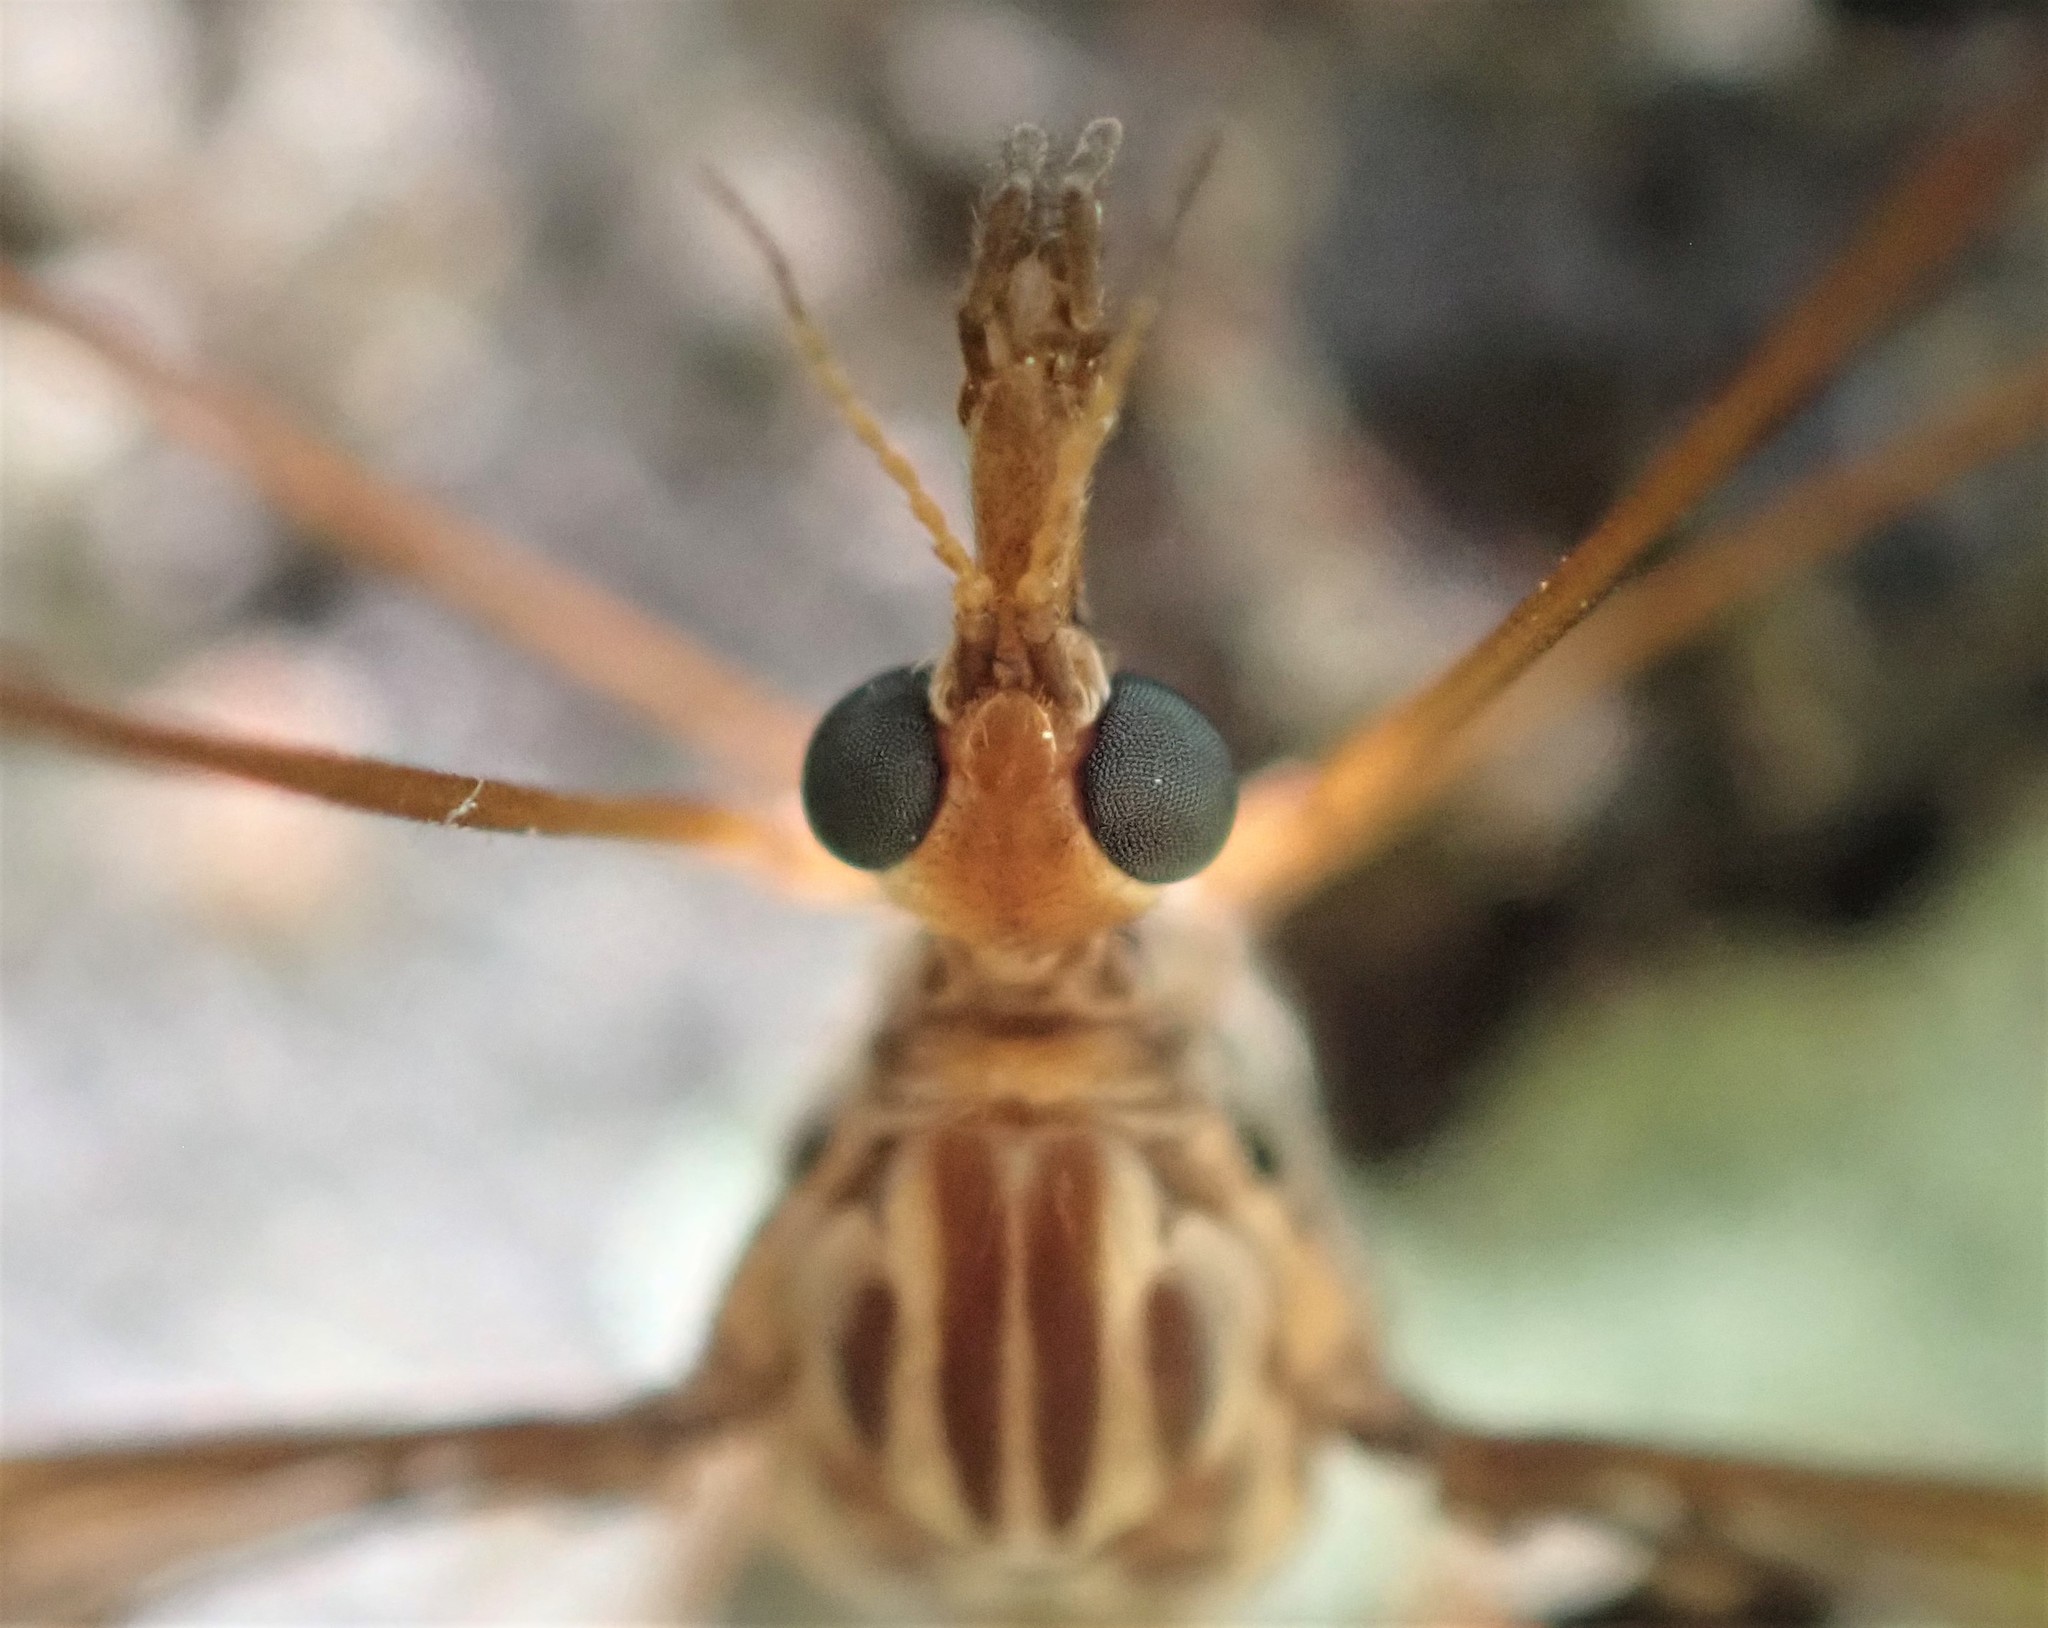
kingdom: Animalia
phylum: Arthropoda
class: Insecta
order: Diptera
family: Tipulidae
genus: Leptotarsus
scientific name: Leptotarsus huttoni
